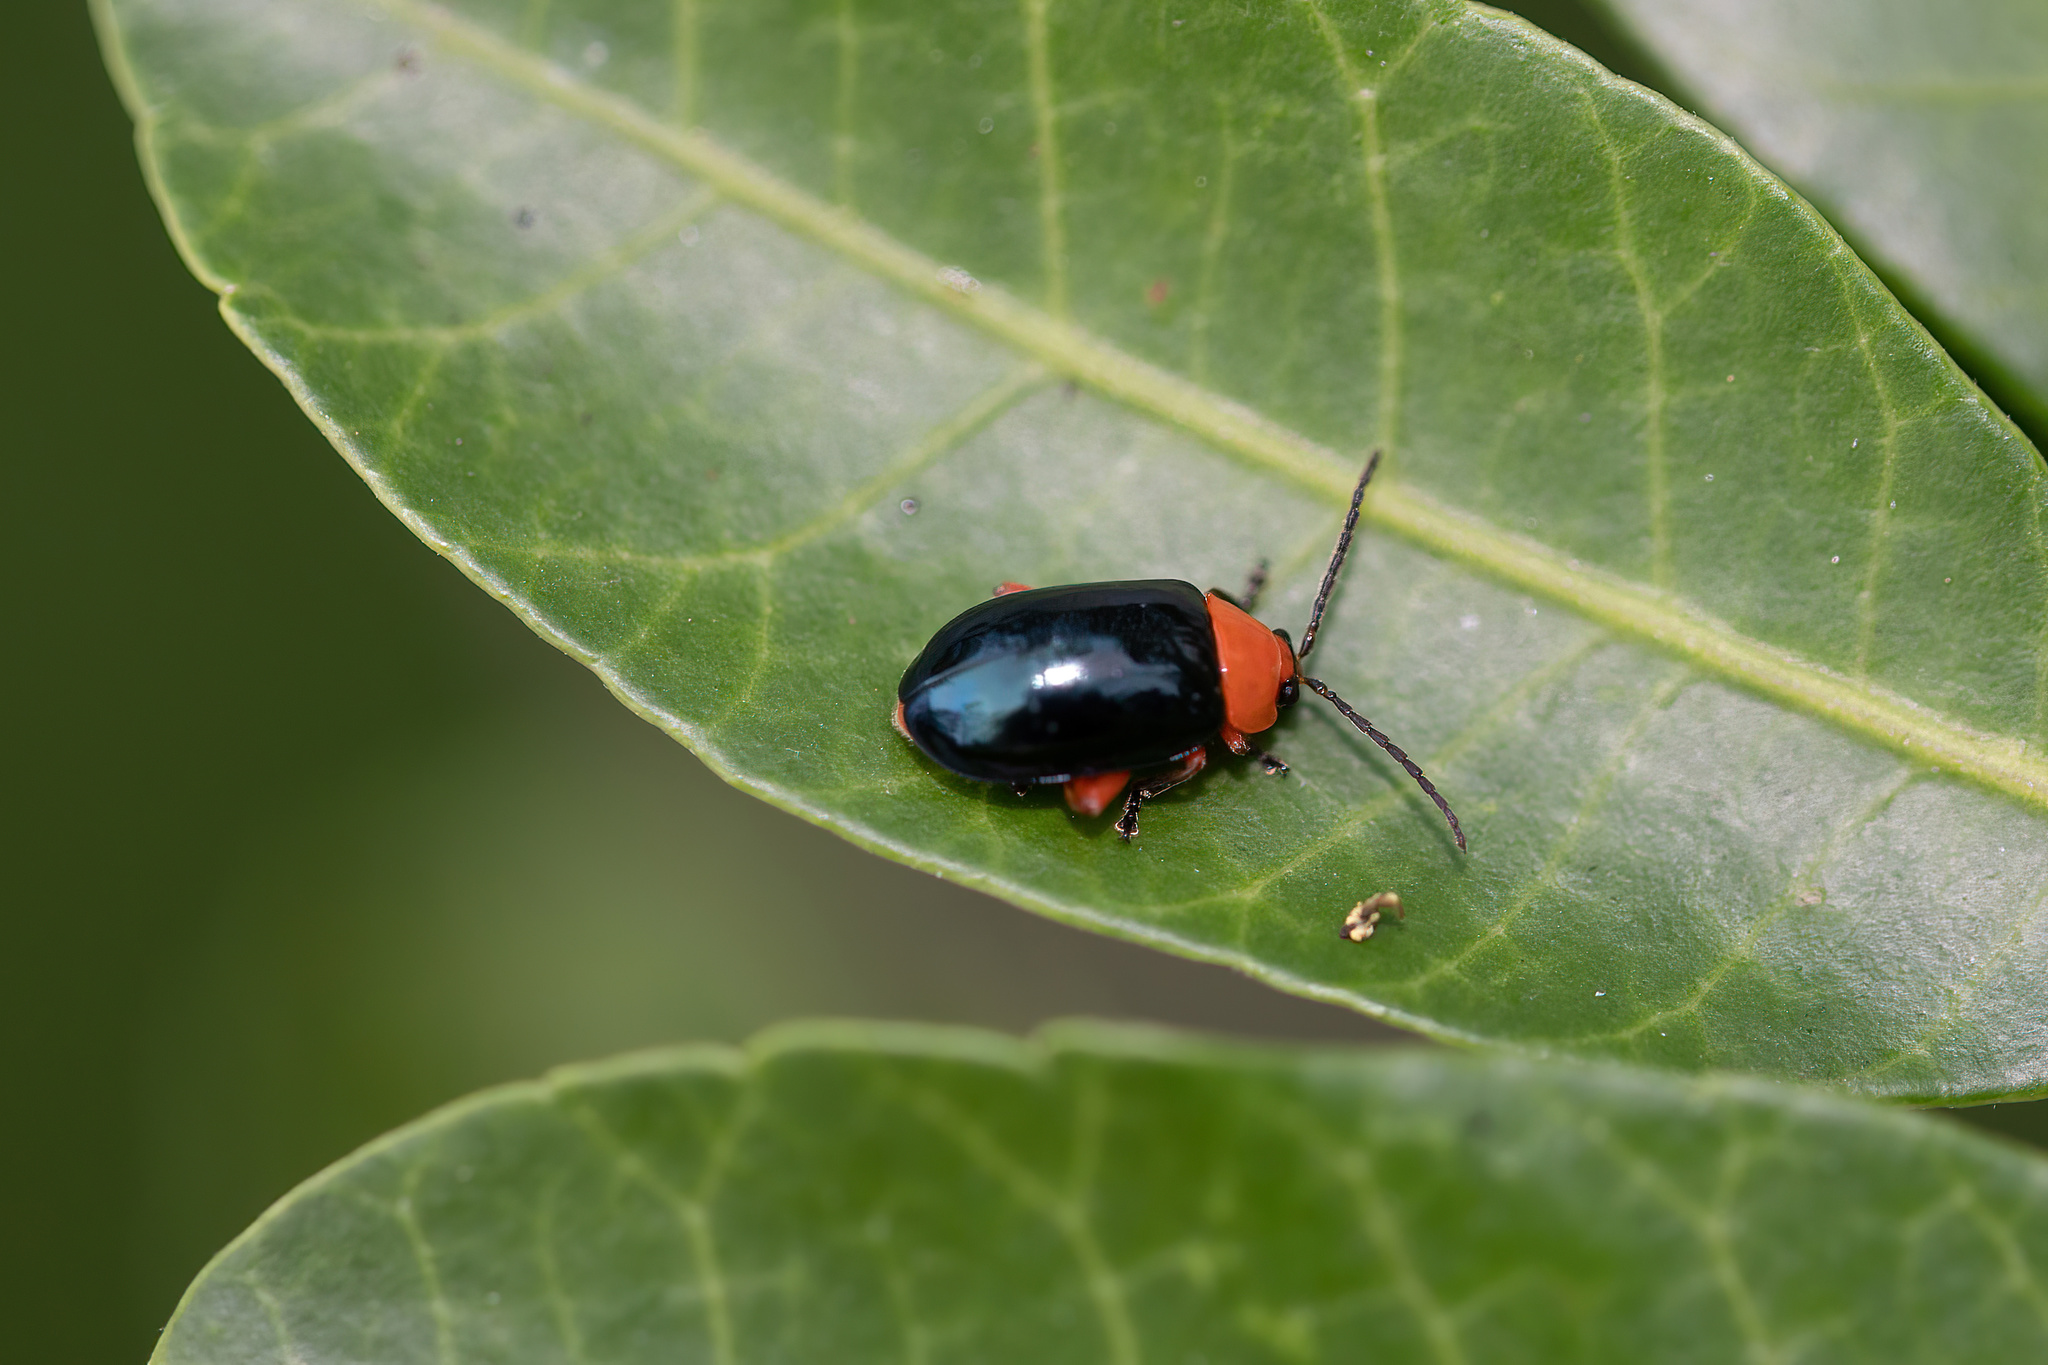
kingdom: Animalia
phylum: Arthropoda
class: Insecta
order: Coleoptera
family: Chrysomelidae
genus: Asphaera
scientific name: Asphaera lustrans
